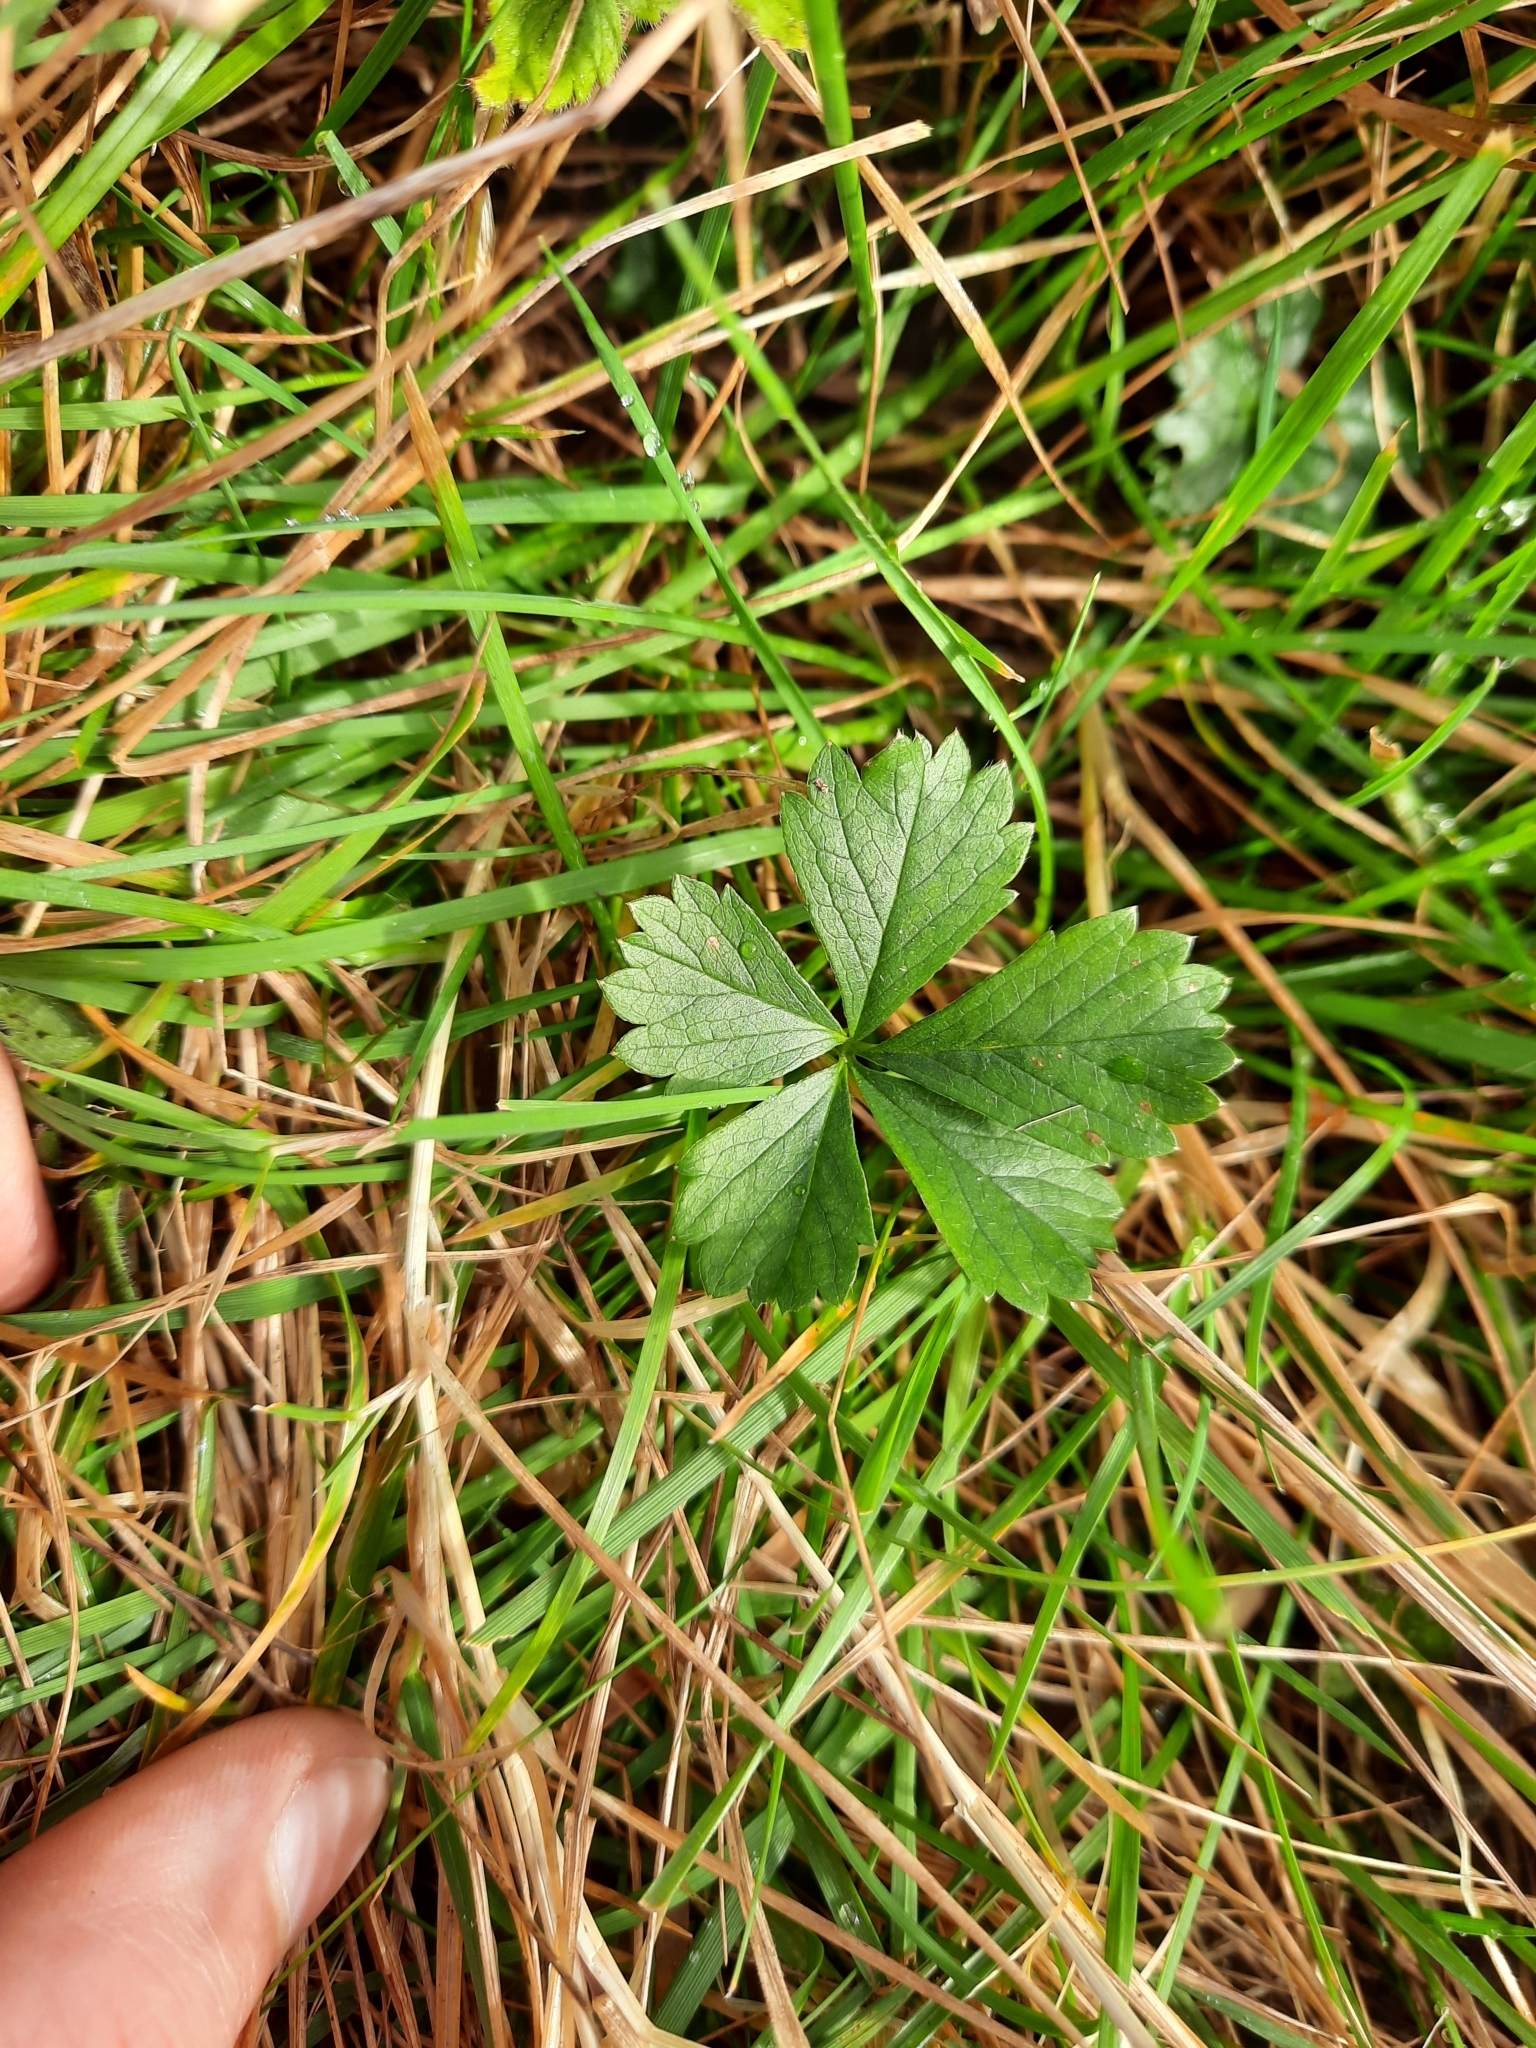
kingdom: Plantae
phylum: Tracheophyta
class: Magnoliopsida
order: Rosales
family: Rosaceae
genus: Potentilla
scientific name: Potentilla reptans
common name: Creeping cinquefoil
